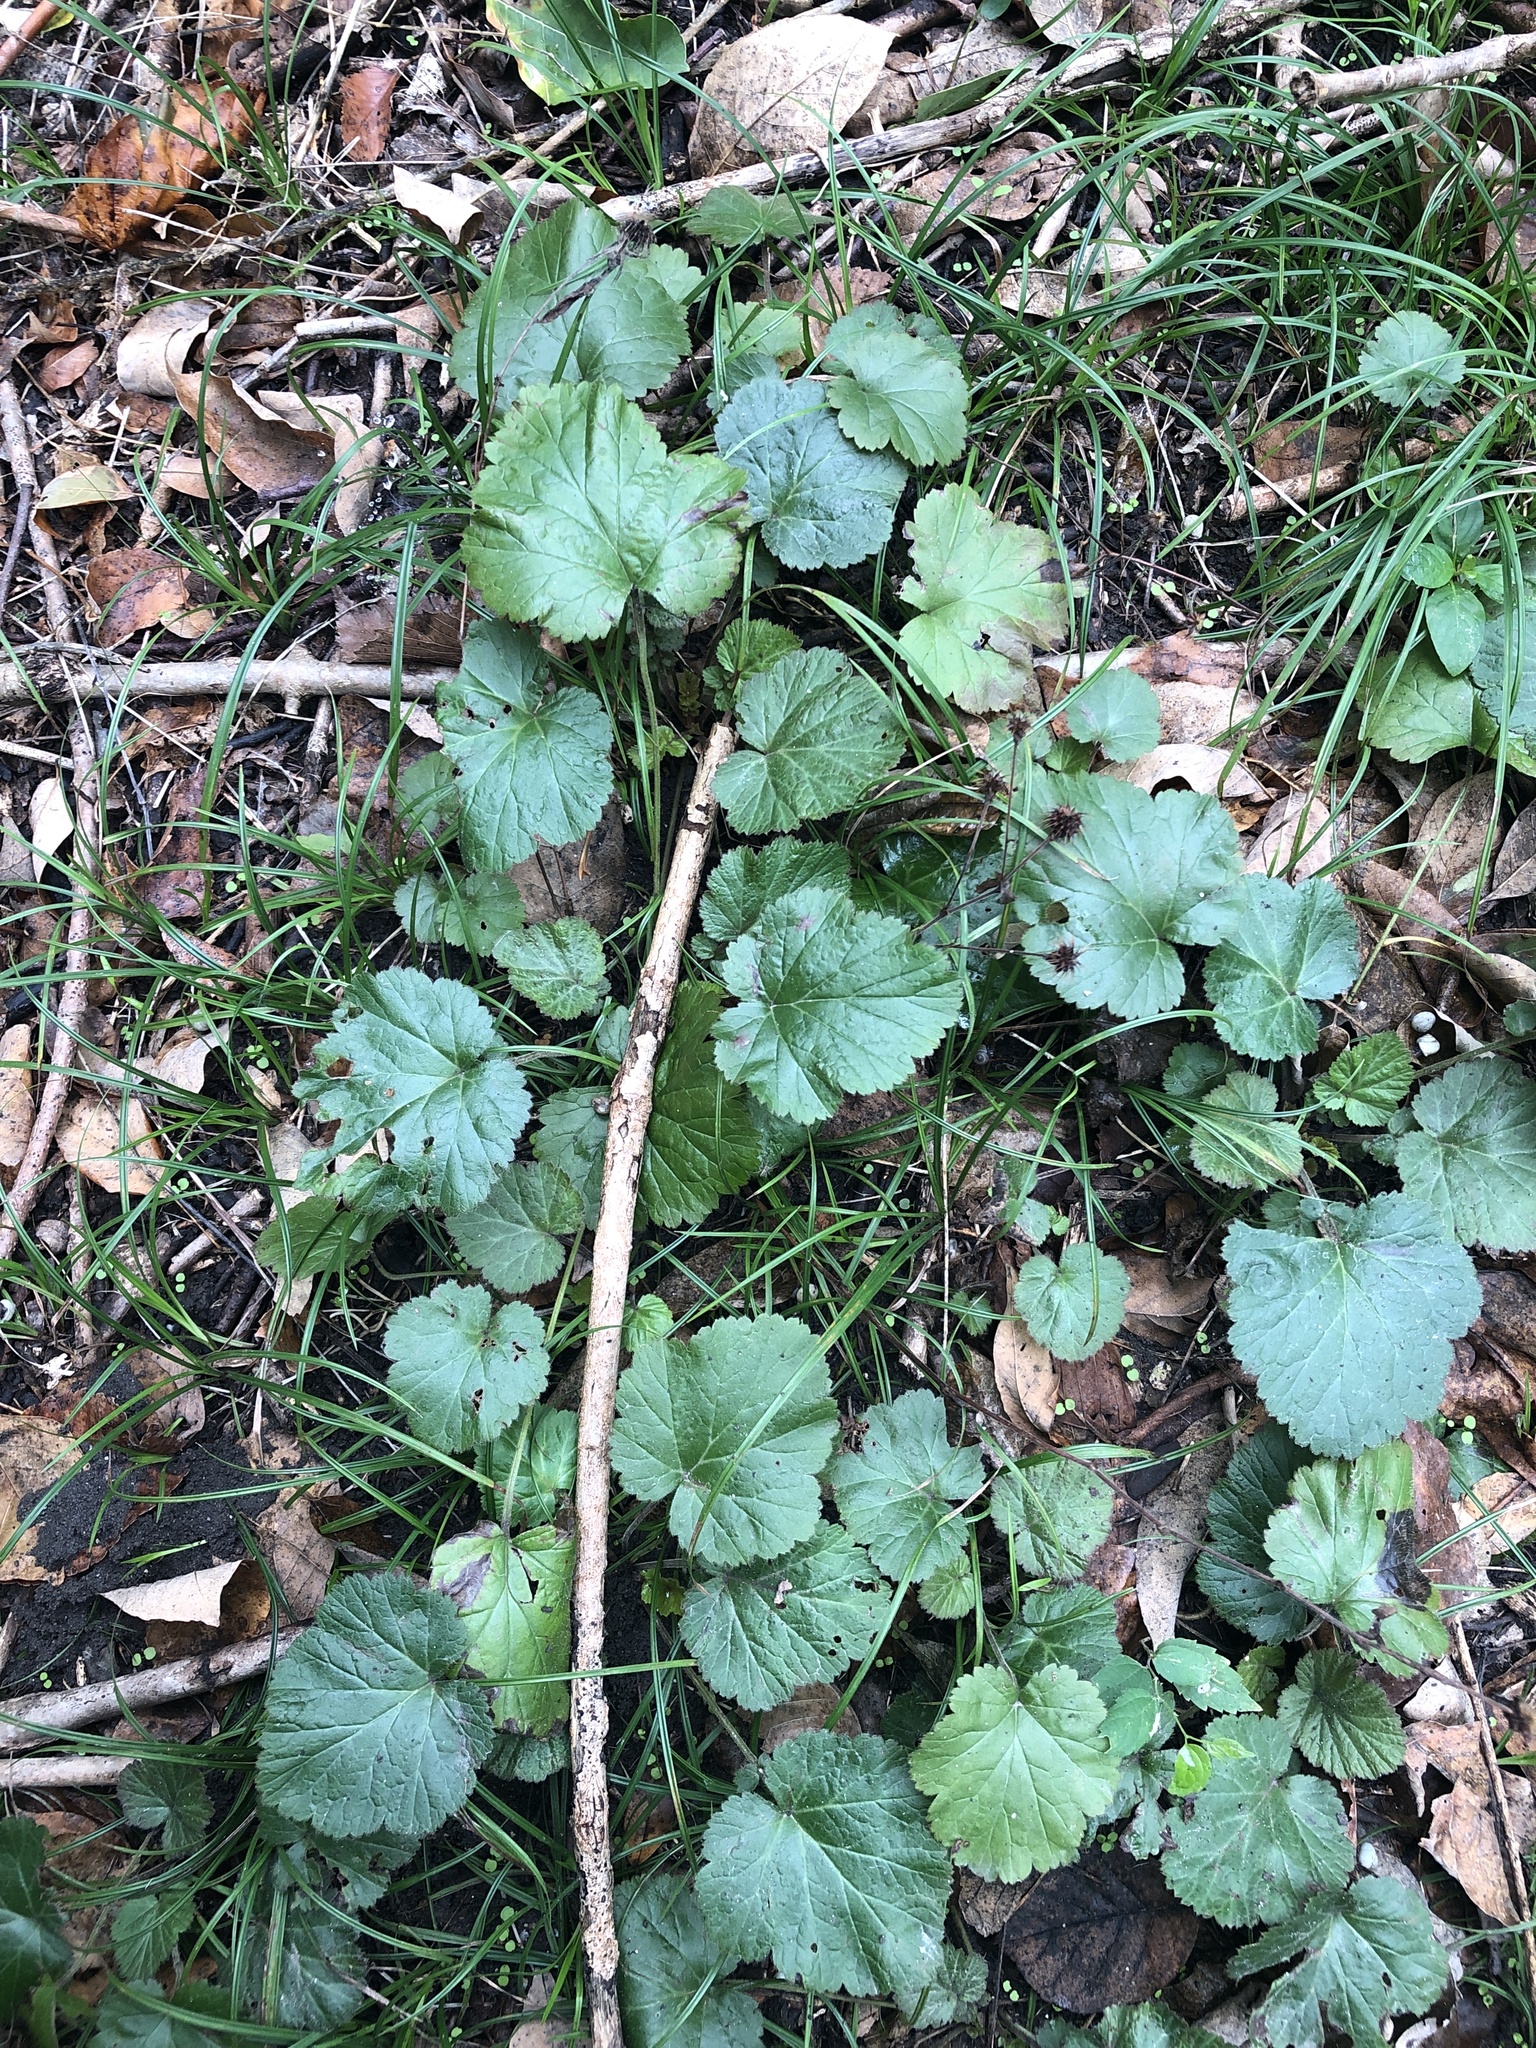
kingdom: Plantae
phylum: Tracheophyta
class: Magnoliopsida
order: Rosales
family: Rosaceae
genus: Geum
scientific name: Geum canadense
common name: White avens
